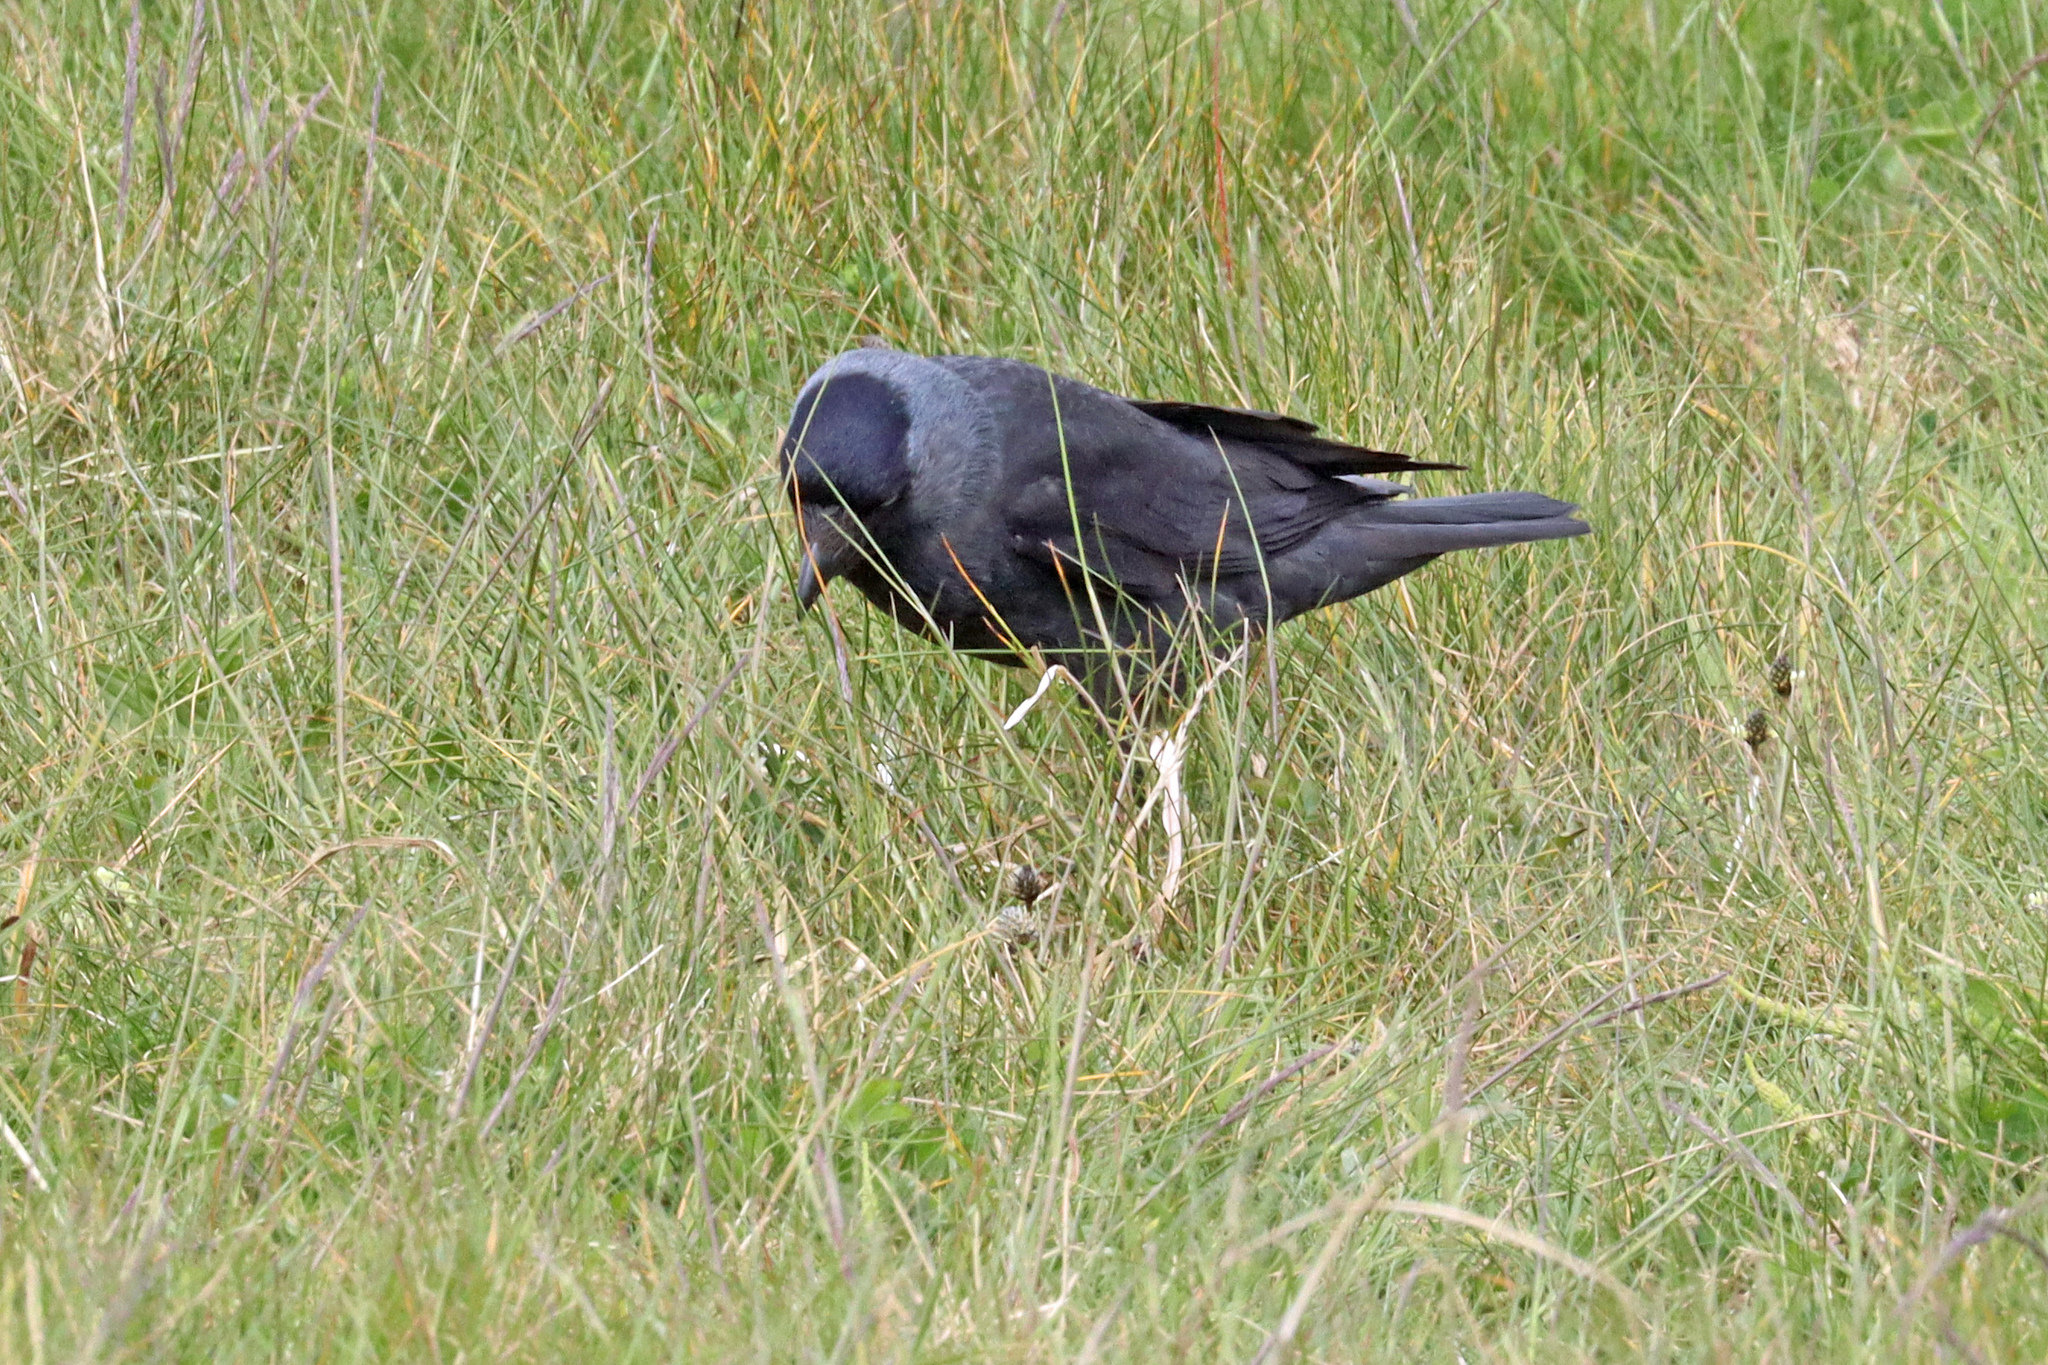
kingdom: Animalia
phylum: Chordata
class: Aves
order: Passeriformes
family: Corvidae
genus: Coloeus
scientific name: Coloeus monedula
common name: Western jackdaw
